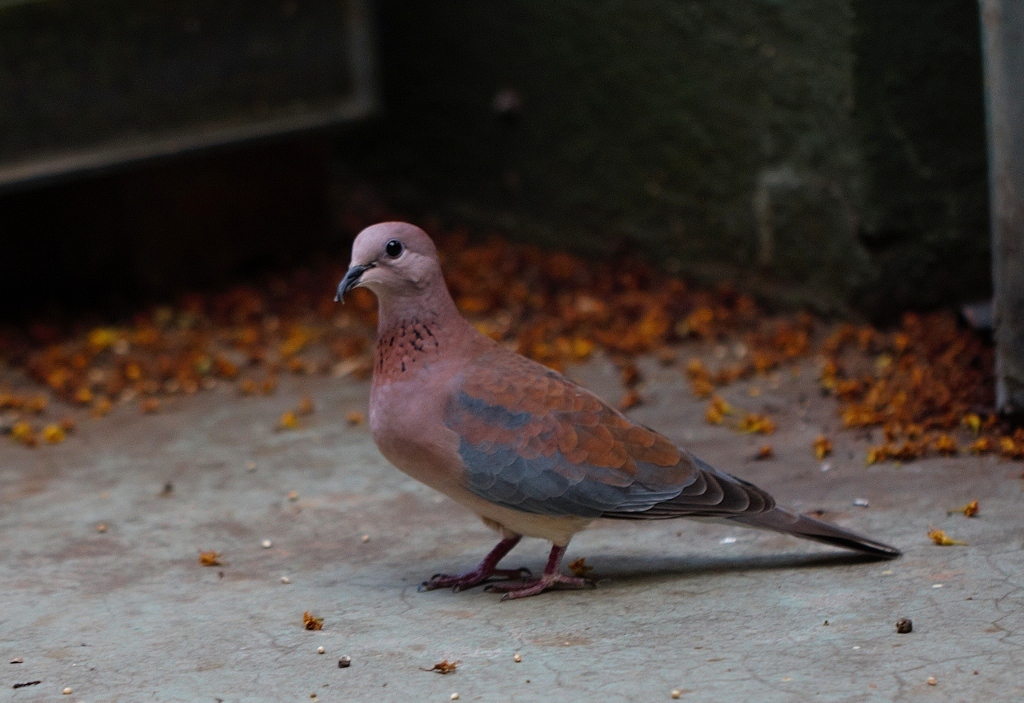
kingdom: Animalia
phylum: Chordata
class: Aves
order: Columbiformes
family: Columbidae
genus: Spilopelia
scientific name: Spilopelia senegalensis
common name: Laughing dove
